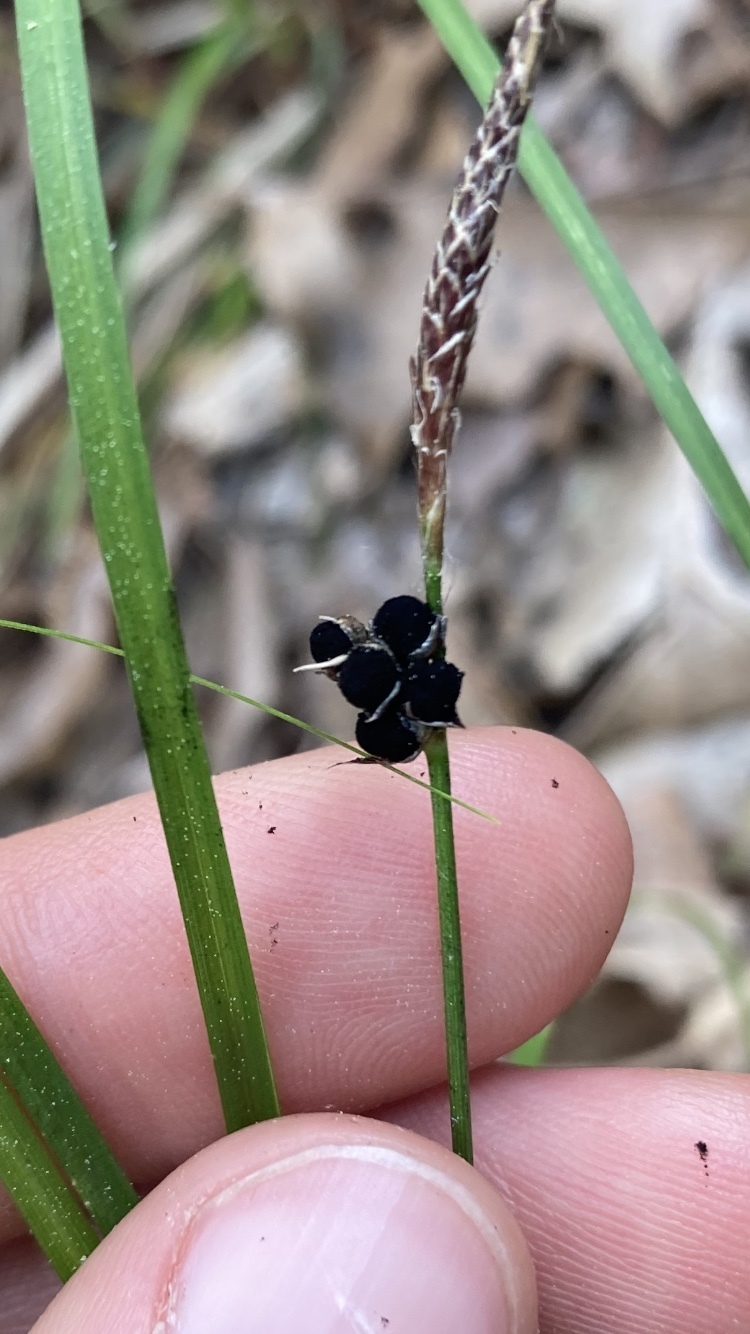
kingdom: Plantae
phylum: Tracheophyta
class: Liliopsida
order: Poales
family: Cyperaceae
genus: Carex
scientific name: Carex pensylvanica
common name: Common oak sedge
